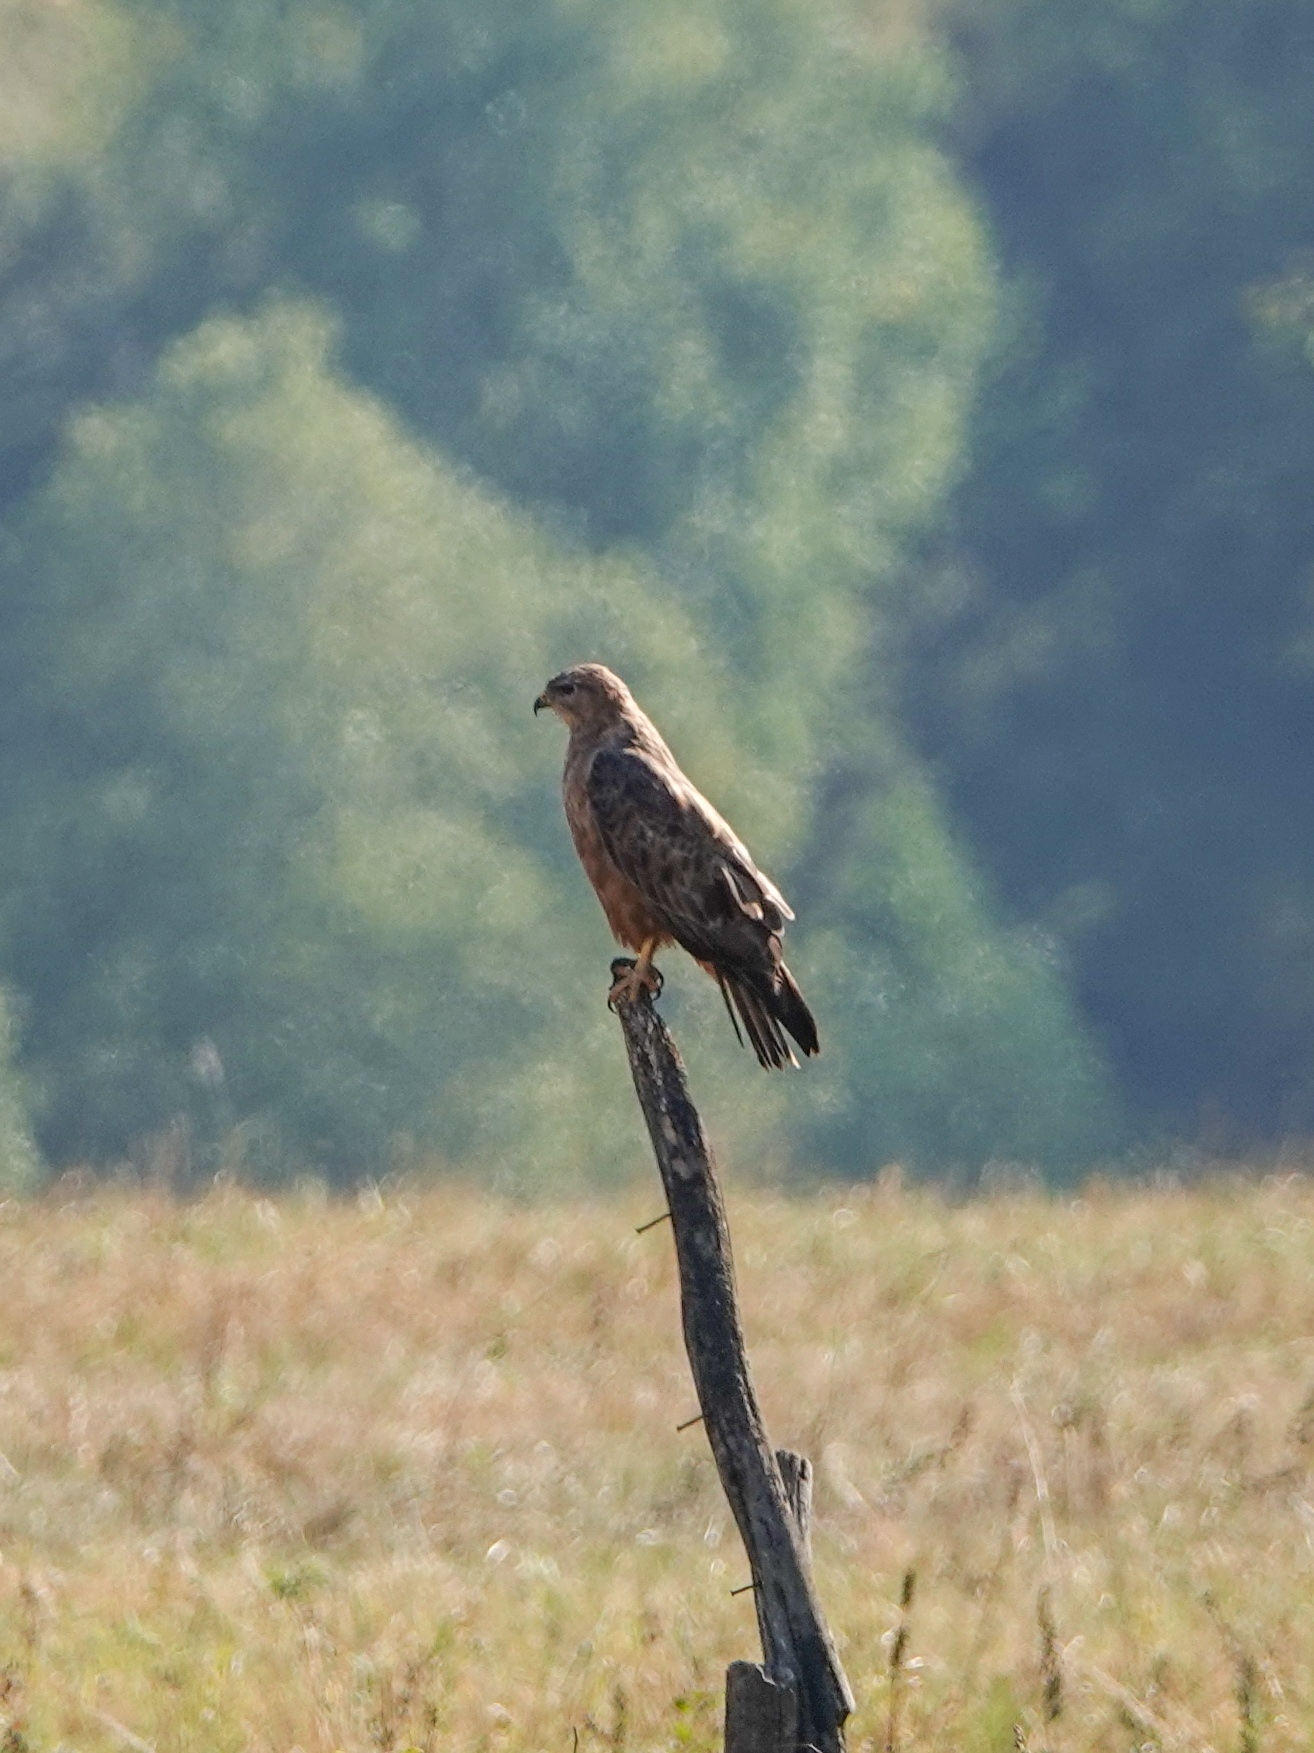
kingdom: Animalia
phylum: Chordata
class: Aves
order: Accipitriformes
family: Accipitridae
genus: Buteo
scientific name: Buteo rufinus
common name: Long-legged buzzard
